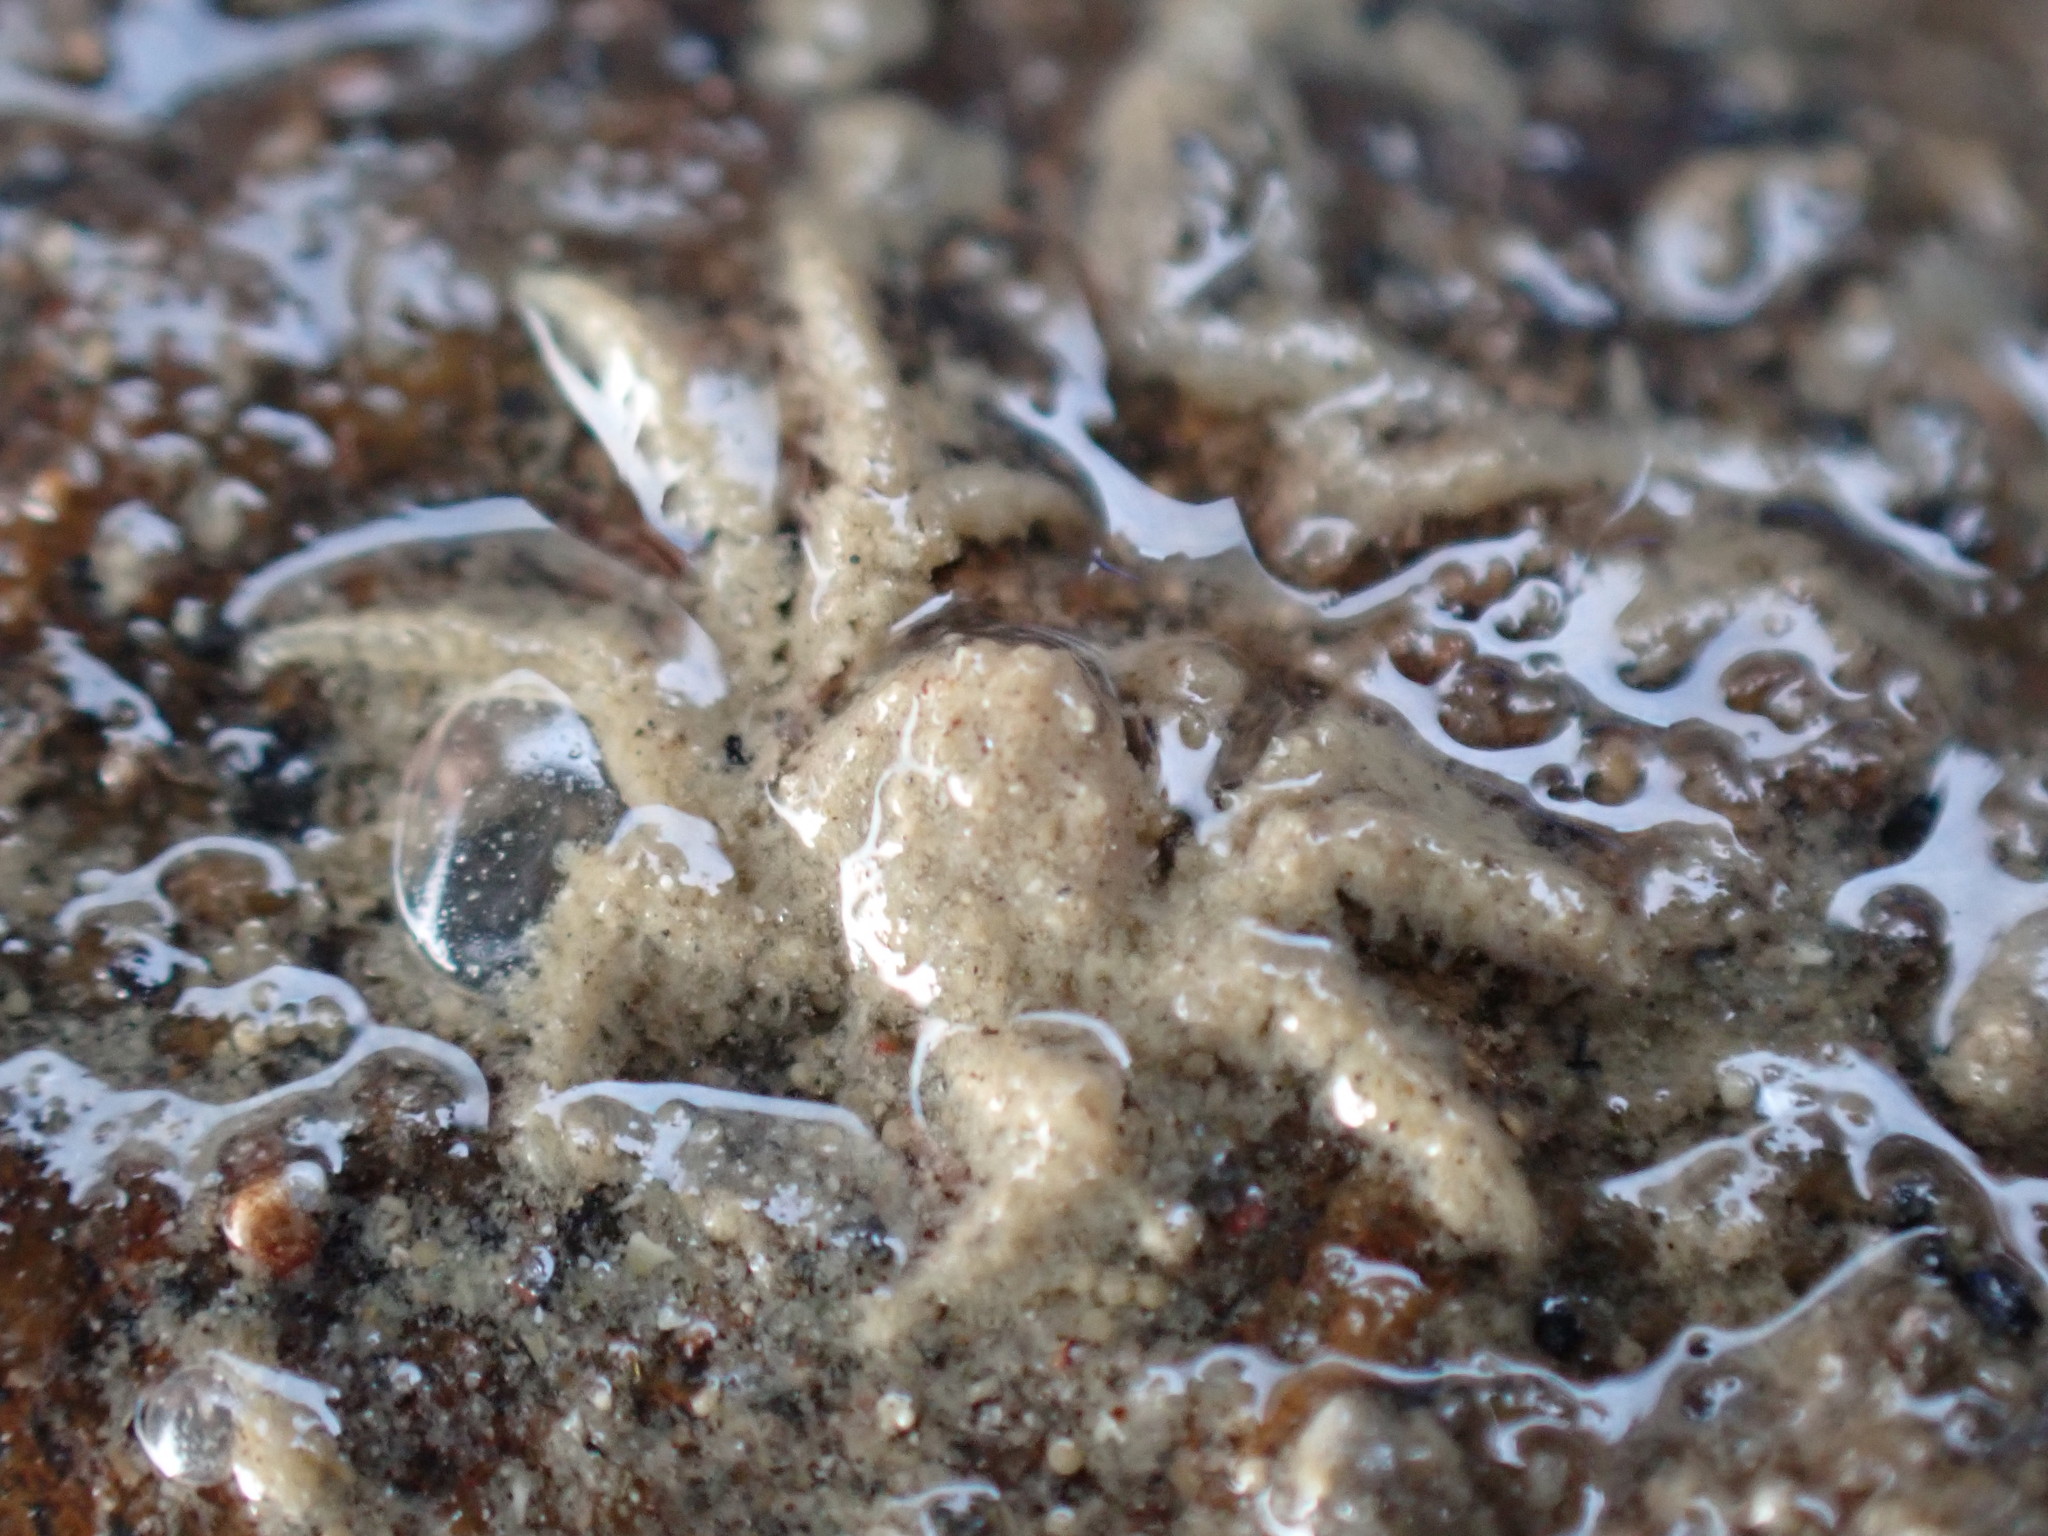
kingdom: Animalia
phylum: Arthropoda
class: Malacostraca
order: Decapoda
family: Hymenosomatidae
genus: Neohymenicus
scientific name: Neohymenicus pubescens
